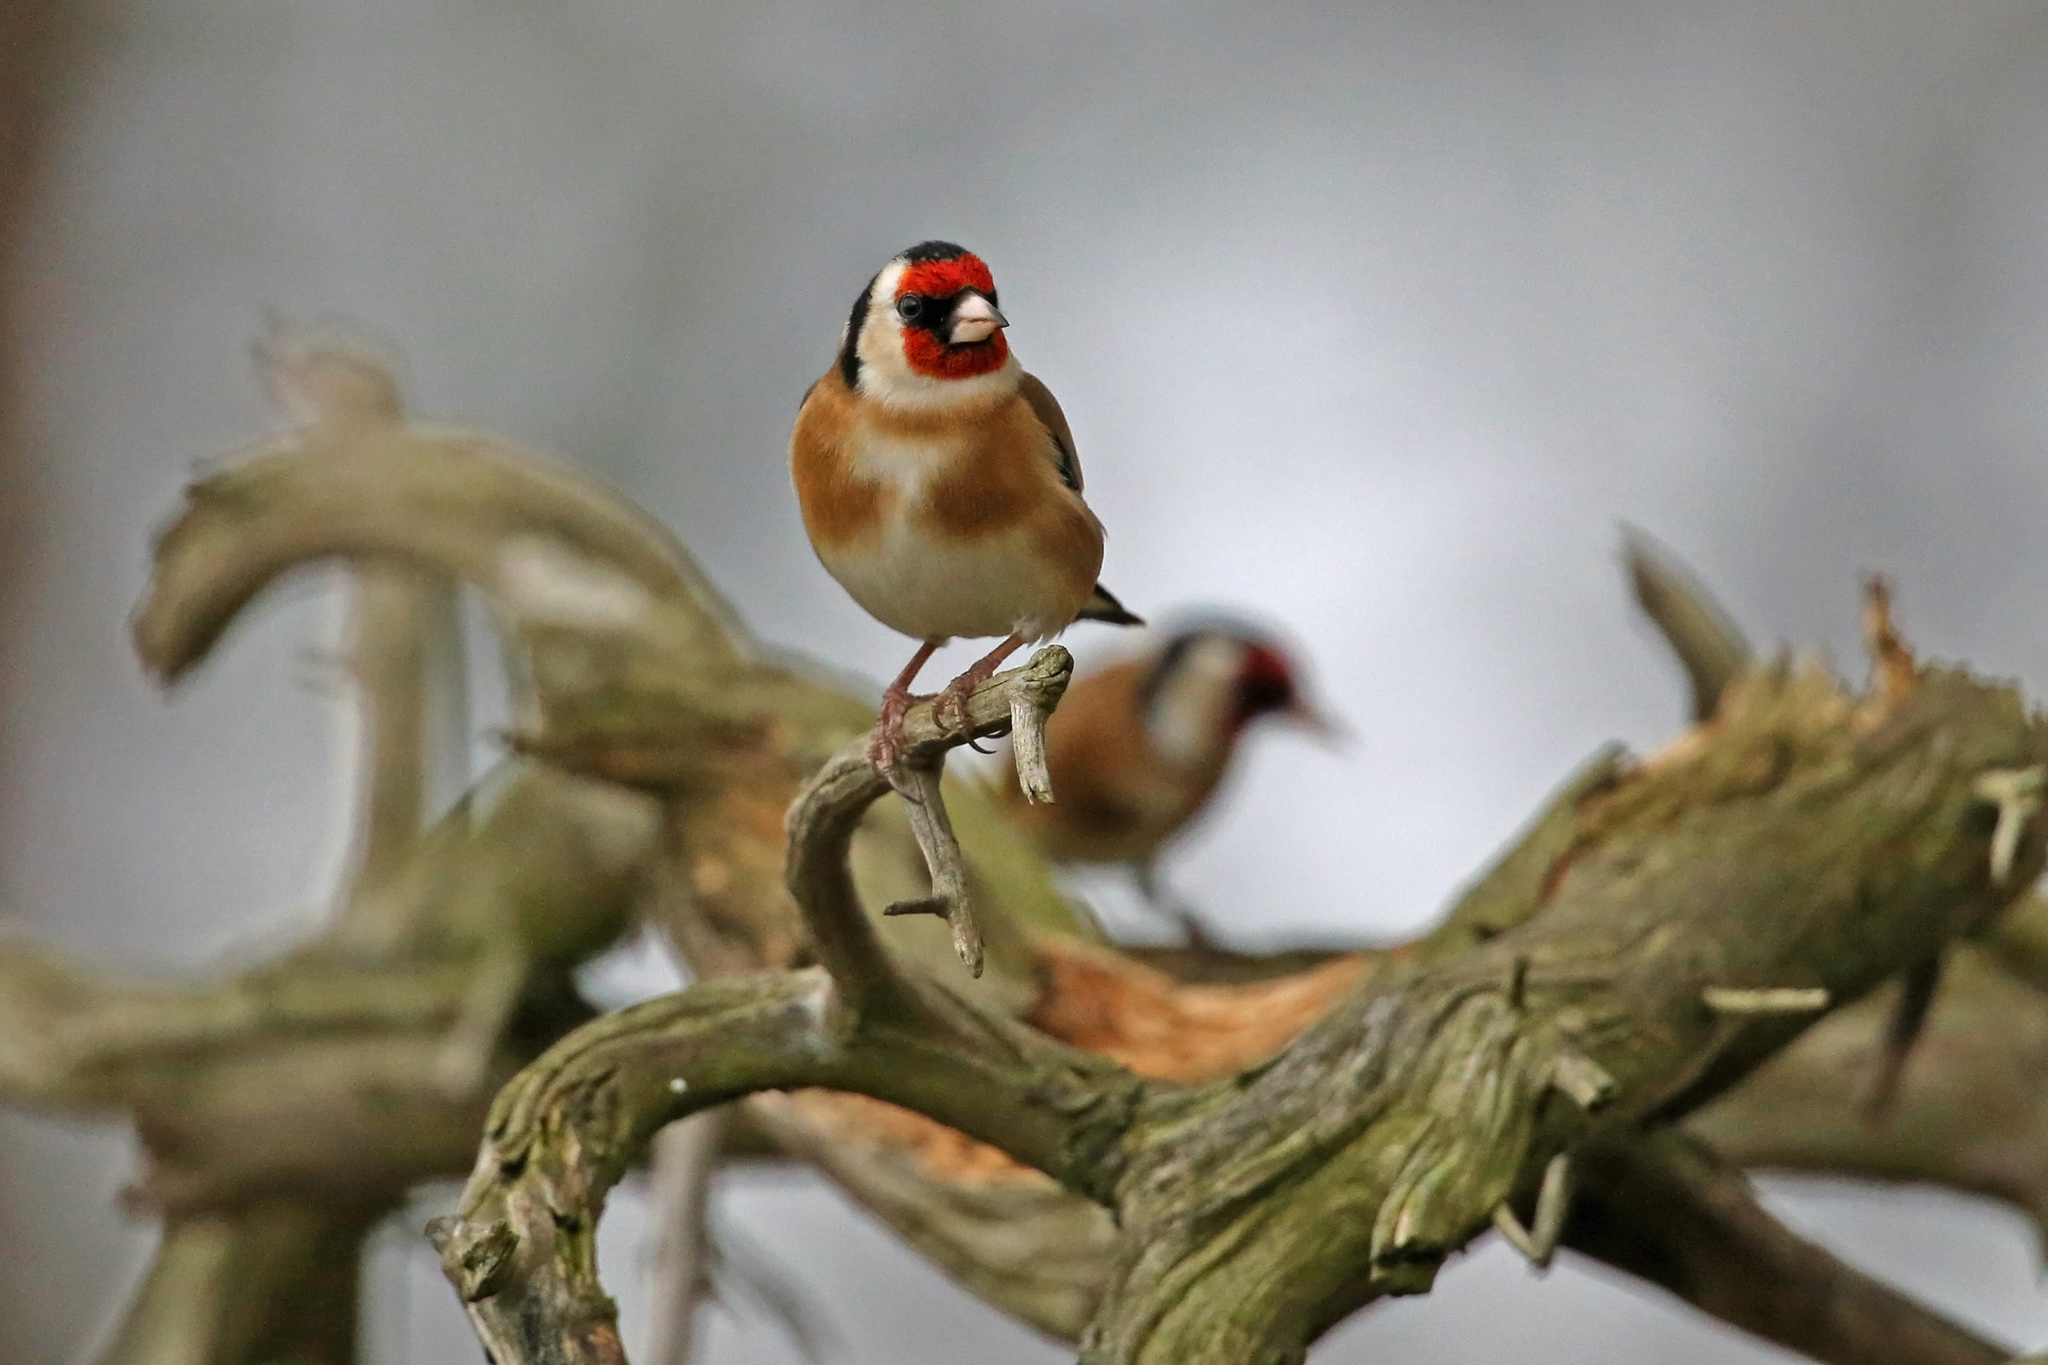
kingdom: Animalia
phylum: Chordata
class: Aves
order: Passeriformes
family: Fringillidae
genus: Carduelis
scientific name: Carduelis carduelis
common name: European goldfinch
